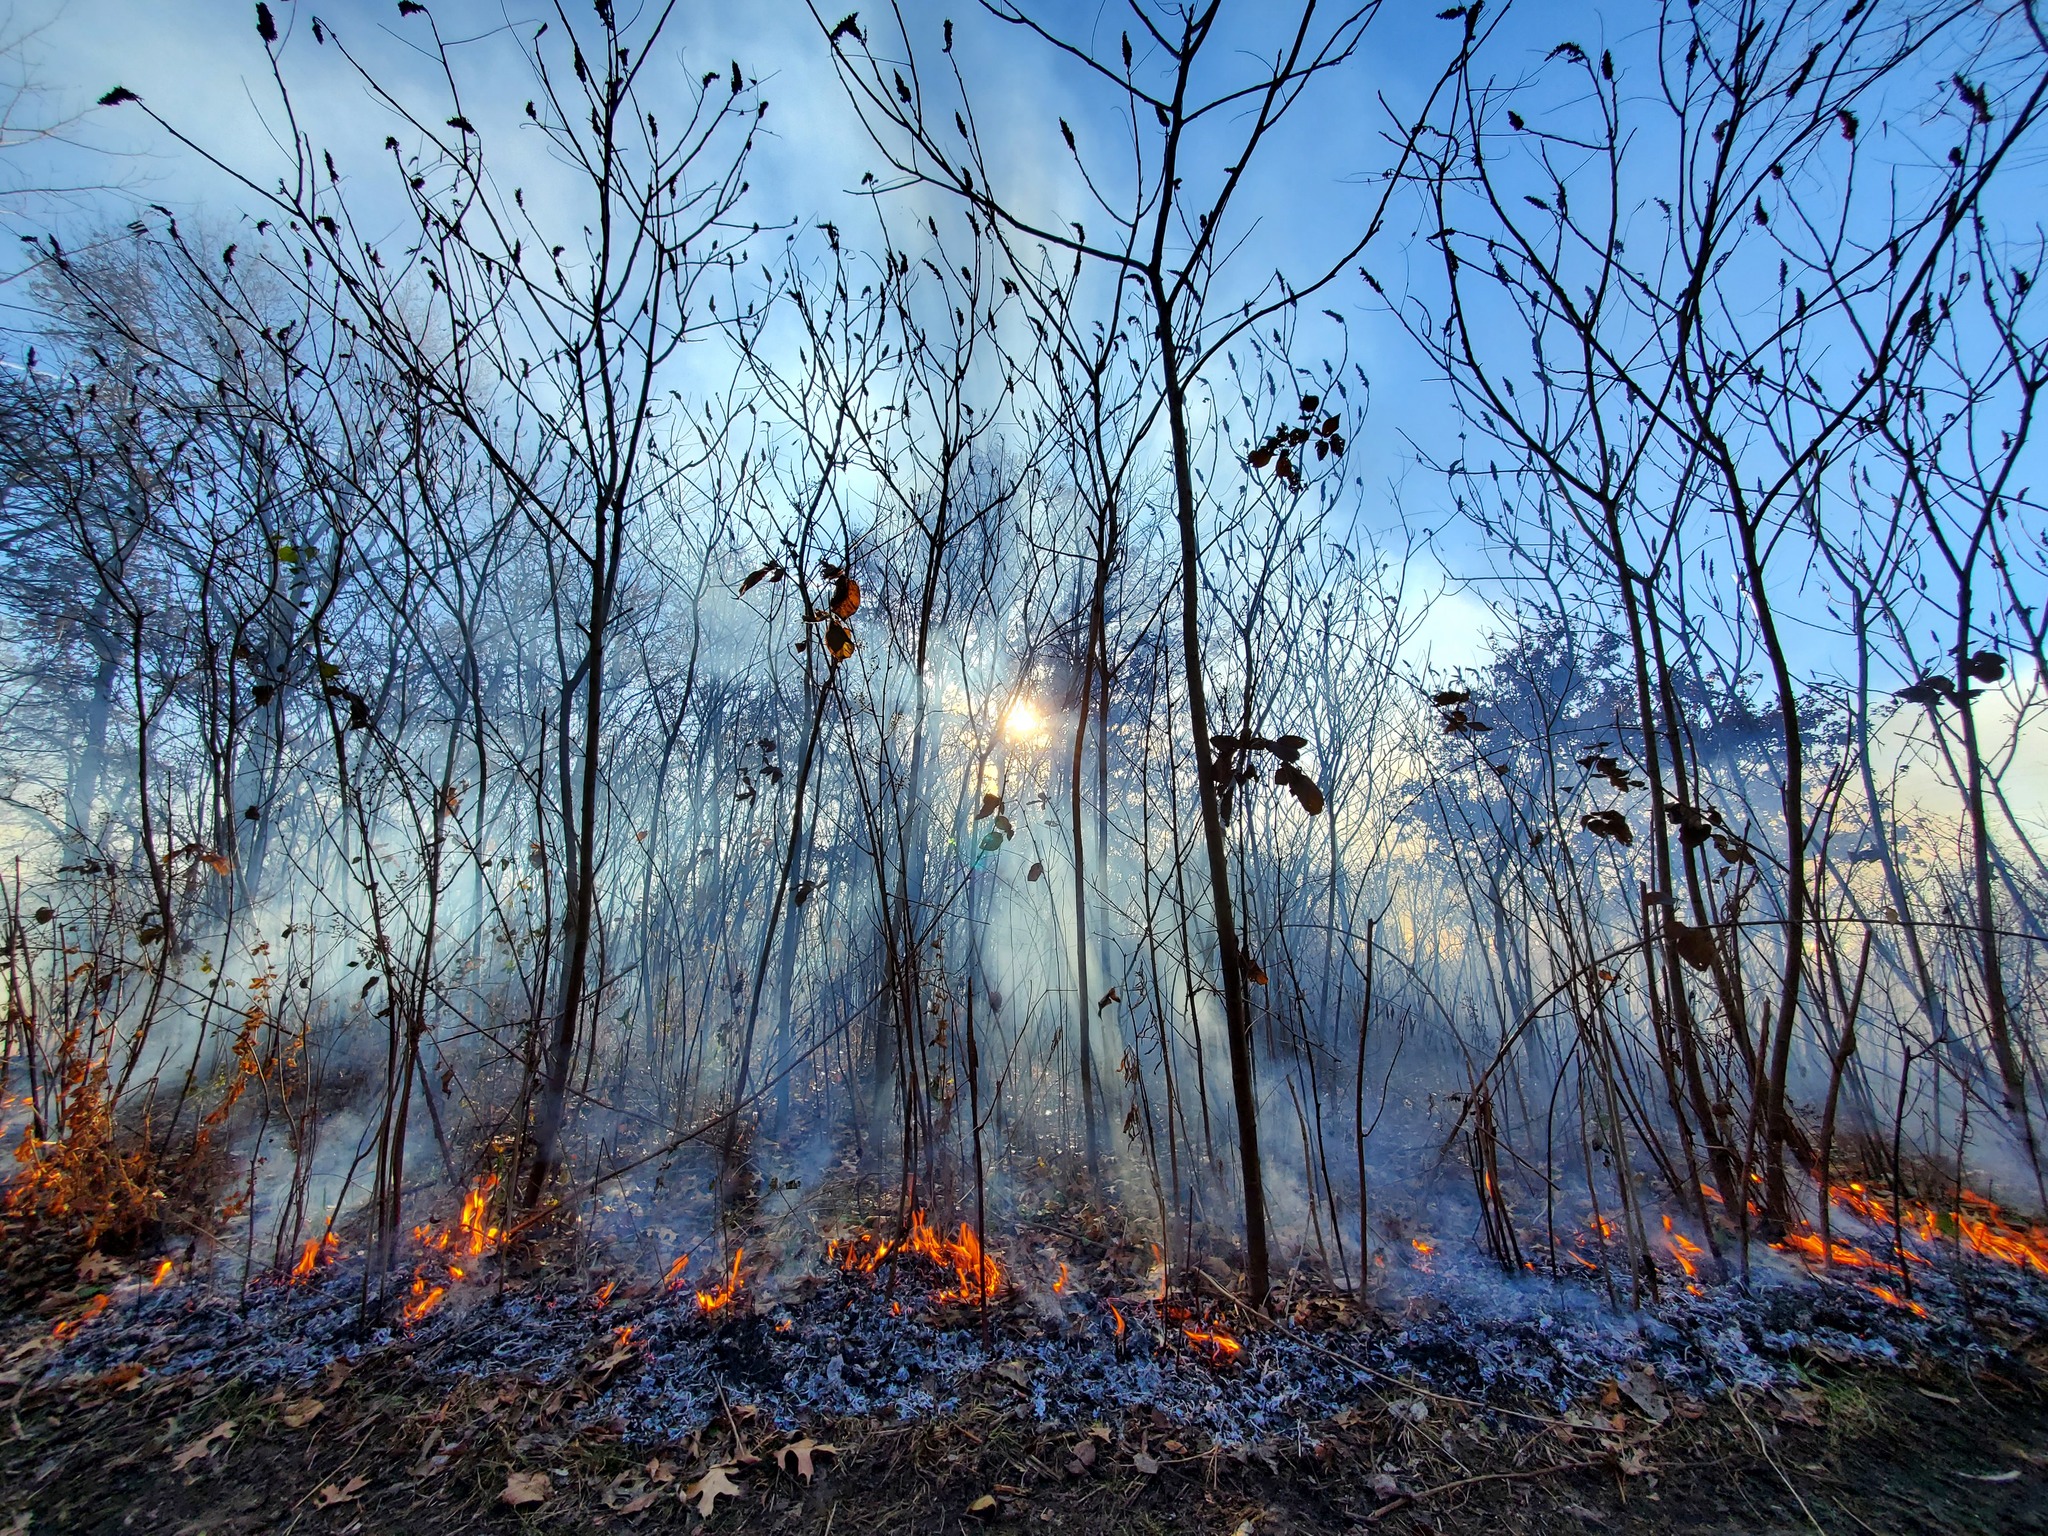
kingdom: Plantae
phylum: Tracheophyta
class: Magnoliopsida
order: Sapindales
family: Anacardiaceae
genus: Rhus
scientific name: Rhus typhina
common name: Staghorn sumac
